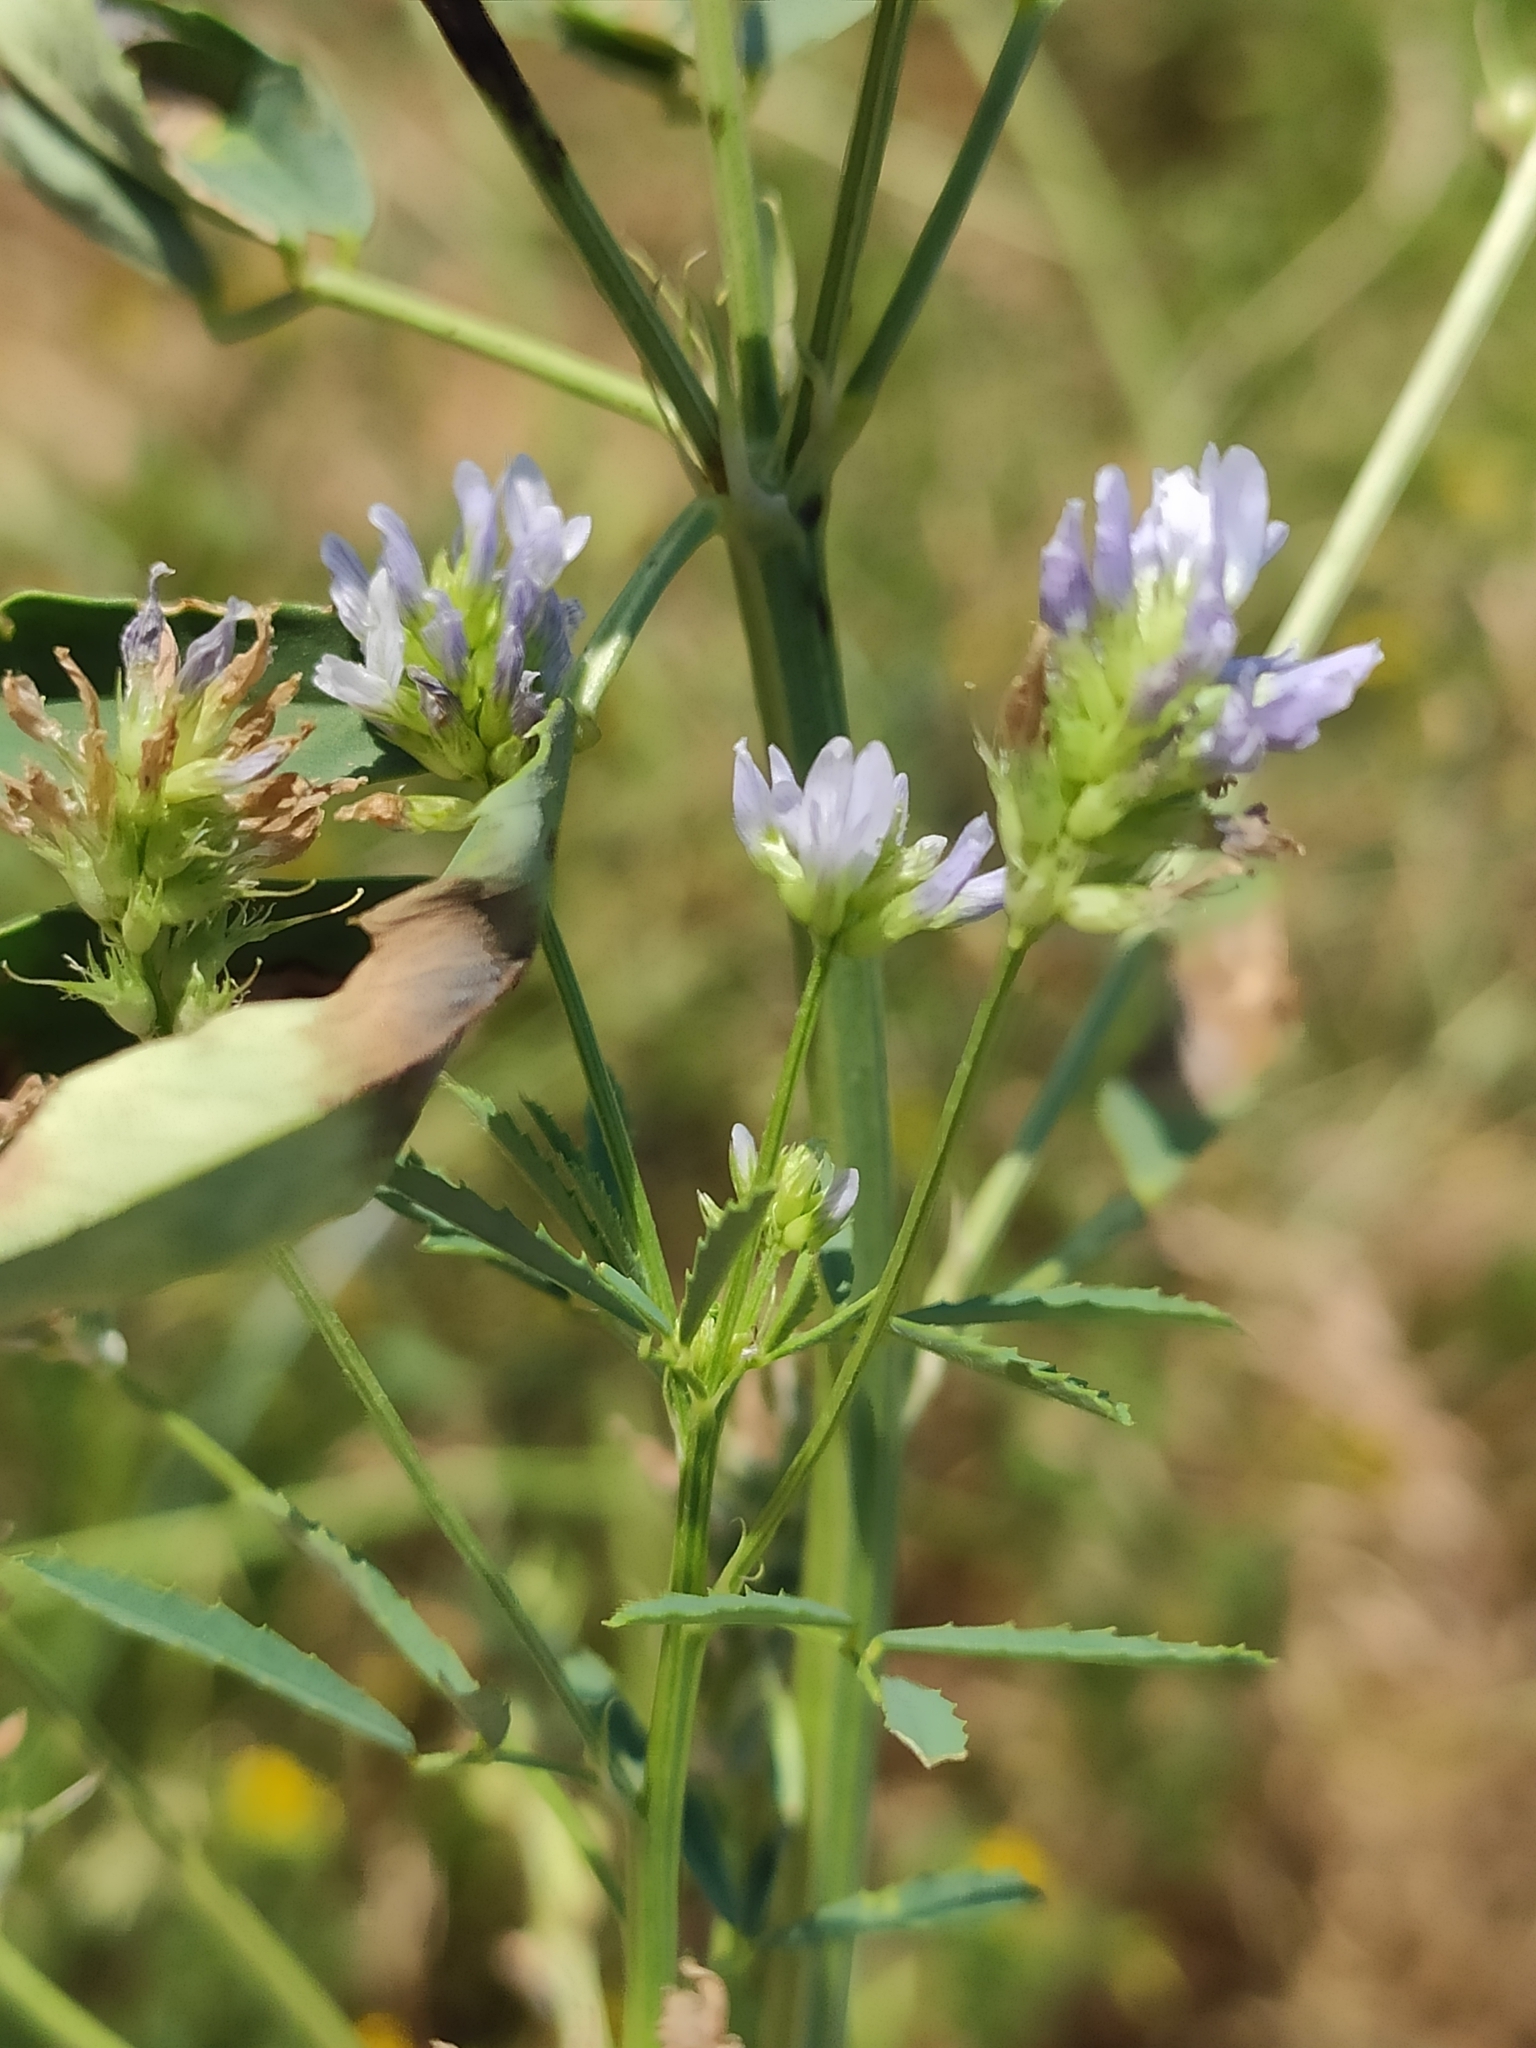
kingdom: Plantae
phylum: Tracheophyta
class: Magnoliopsida
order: Fabales
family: Fabaceae
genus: Trigonella
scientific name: Trigonella caerulea
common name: Blue fenugreek
